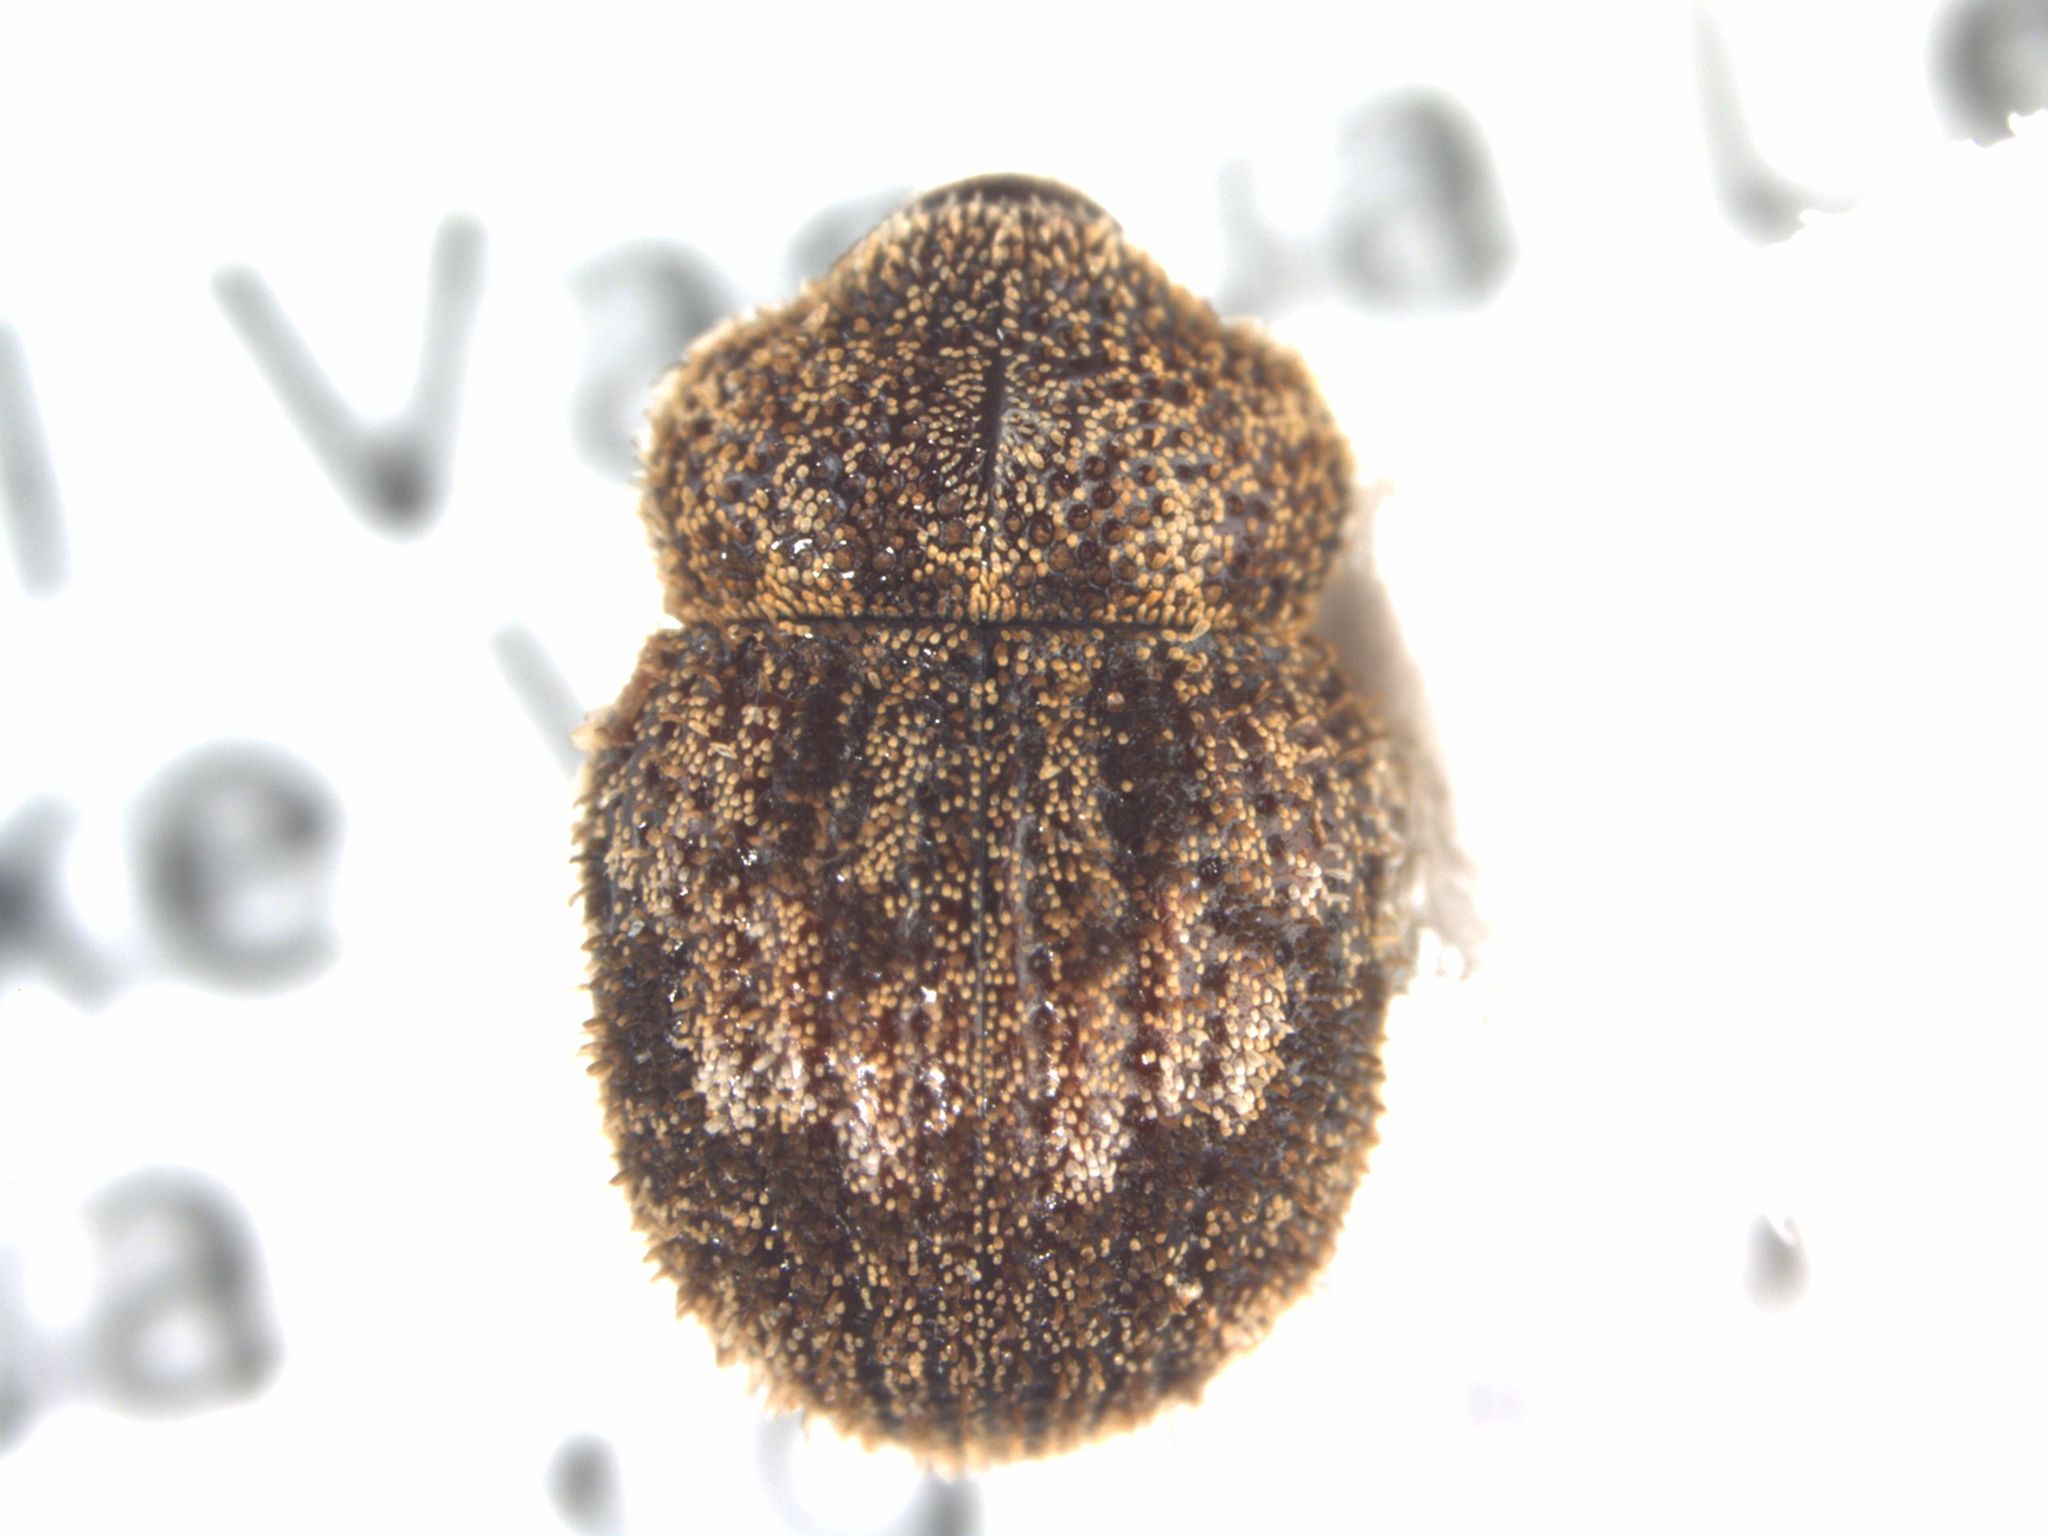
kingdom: Animalia
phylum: Arthropoda
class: Insecta
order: Coleoptera
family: Curculionidae
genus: Tamphilus
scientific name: Tamphilus amplicollis
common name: Weevil
